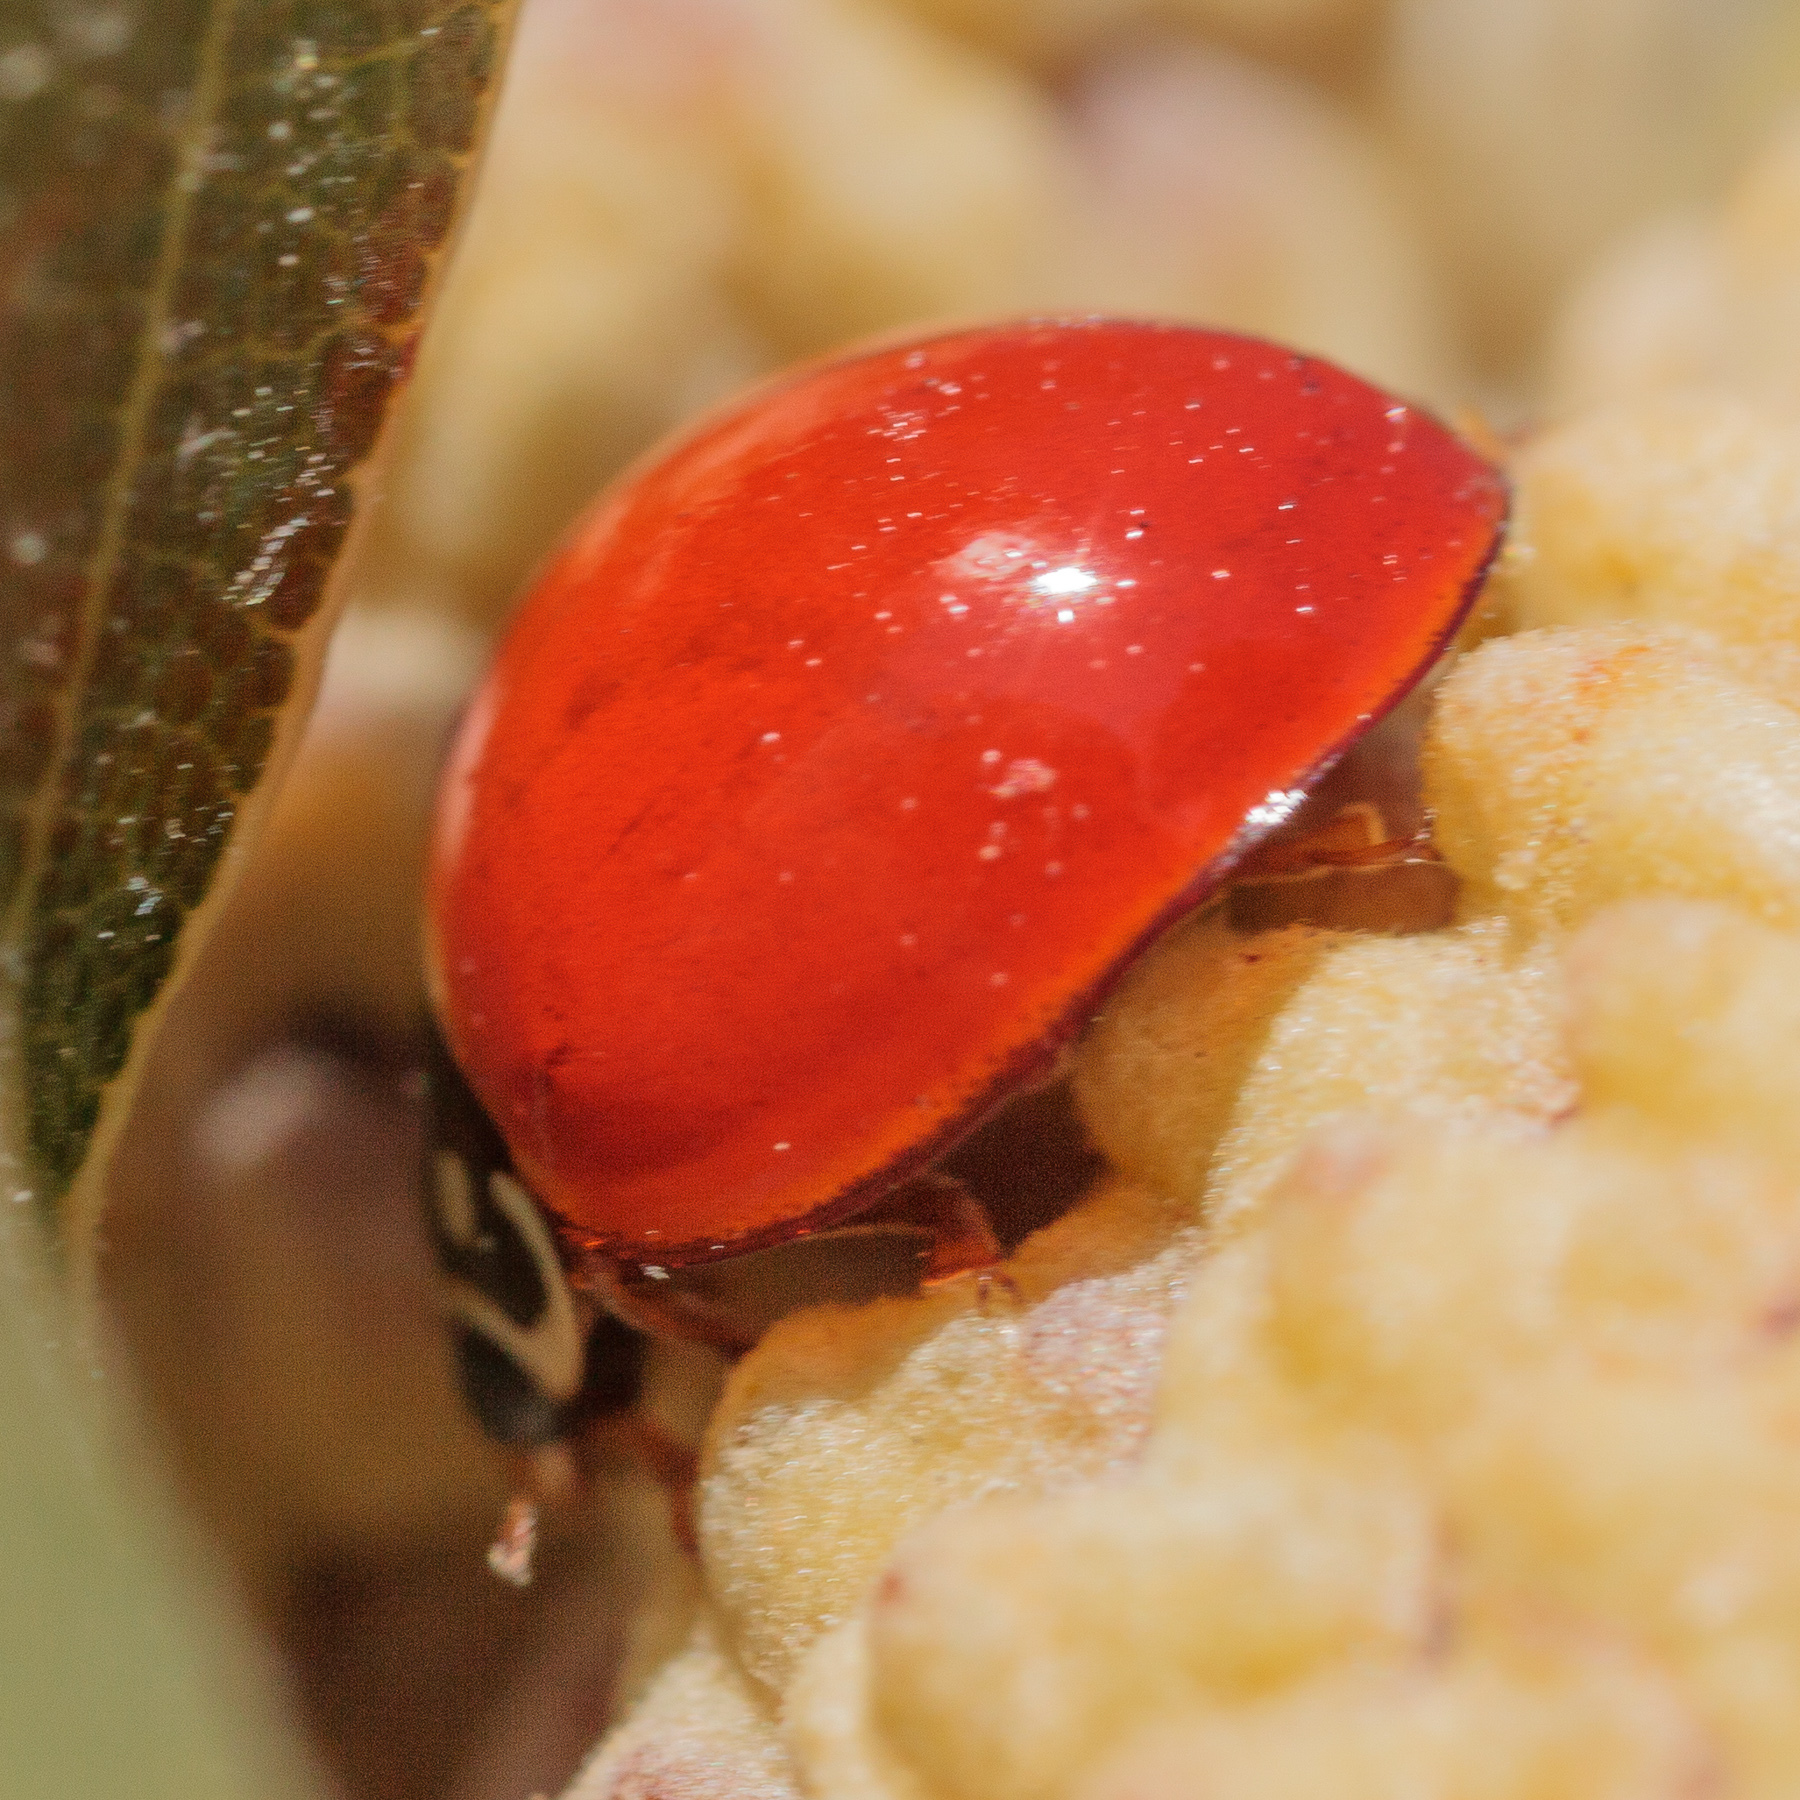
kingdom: Animalia
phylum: Arthropoda
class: Insecta
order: Coleoptera
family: Coccinellidae
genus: Cycloneda
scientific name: Cycloneda sanguinea
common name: Ladybird beetle
